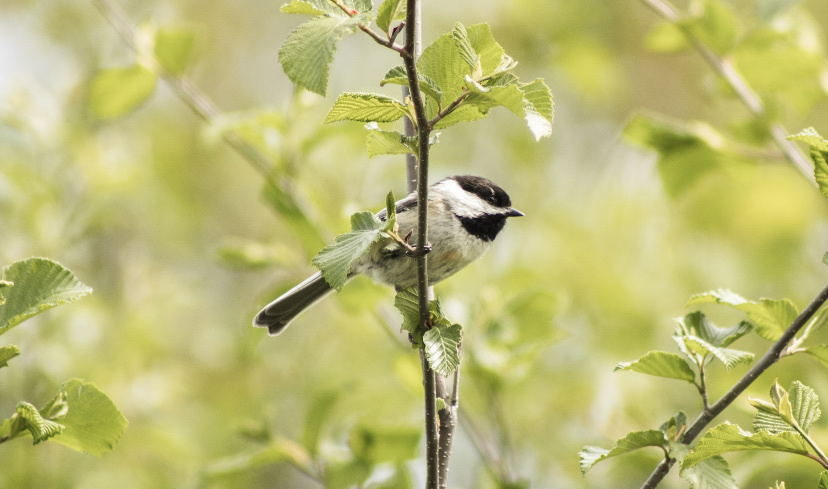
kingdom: Animalia
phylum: Chordata
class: Aves
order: Passeriformes
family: Paridae
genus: Poecile
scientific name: Poecile atricapillus
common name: Black-capped chickadee
